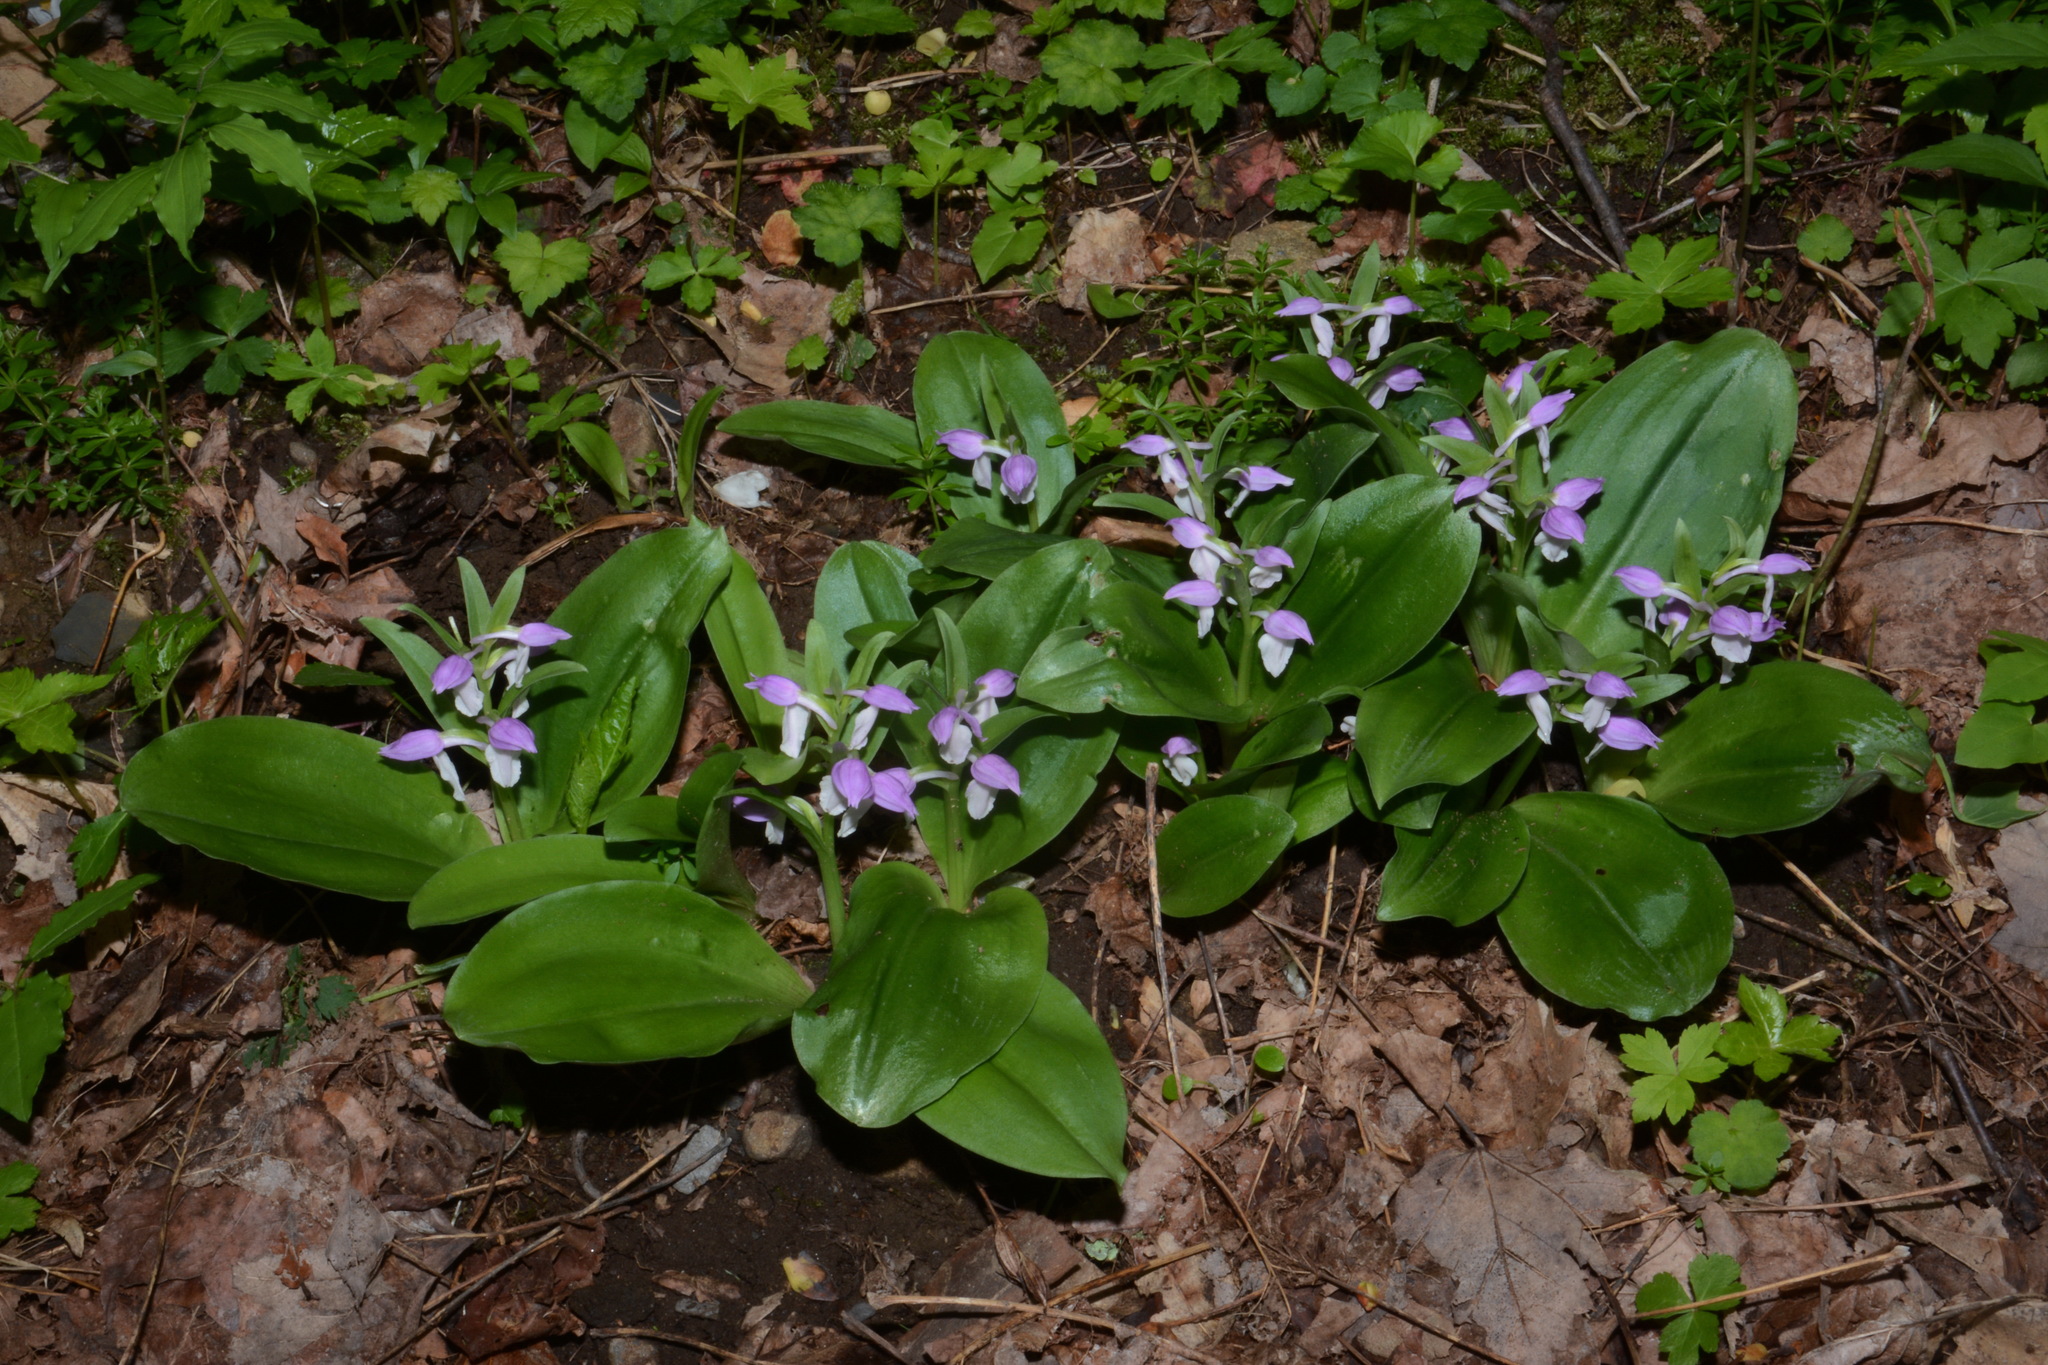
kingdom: Plantae
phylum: Tracheophyta
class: Liliopsida
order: Asparagales
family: Orchidaceae
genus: Galearis
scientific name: Galearis spectabilis
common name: Purple-hooded orchis
